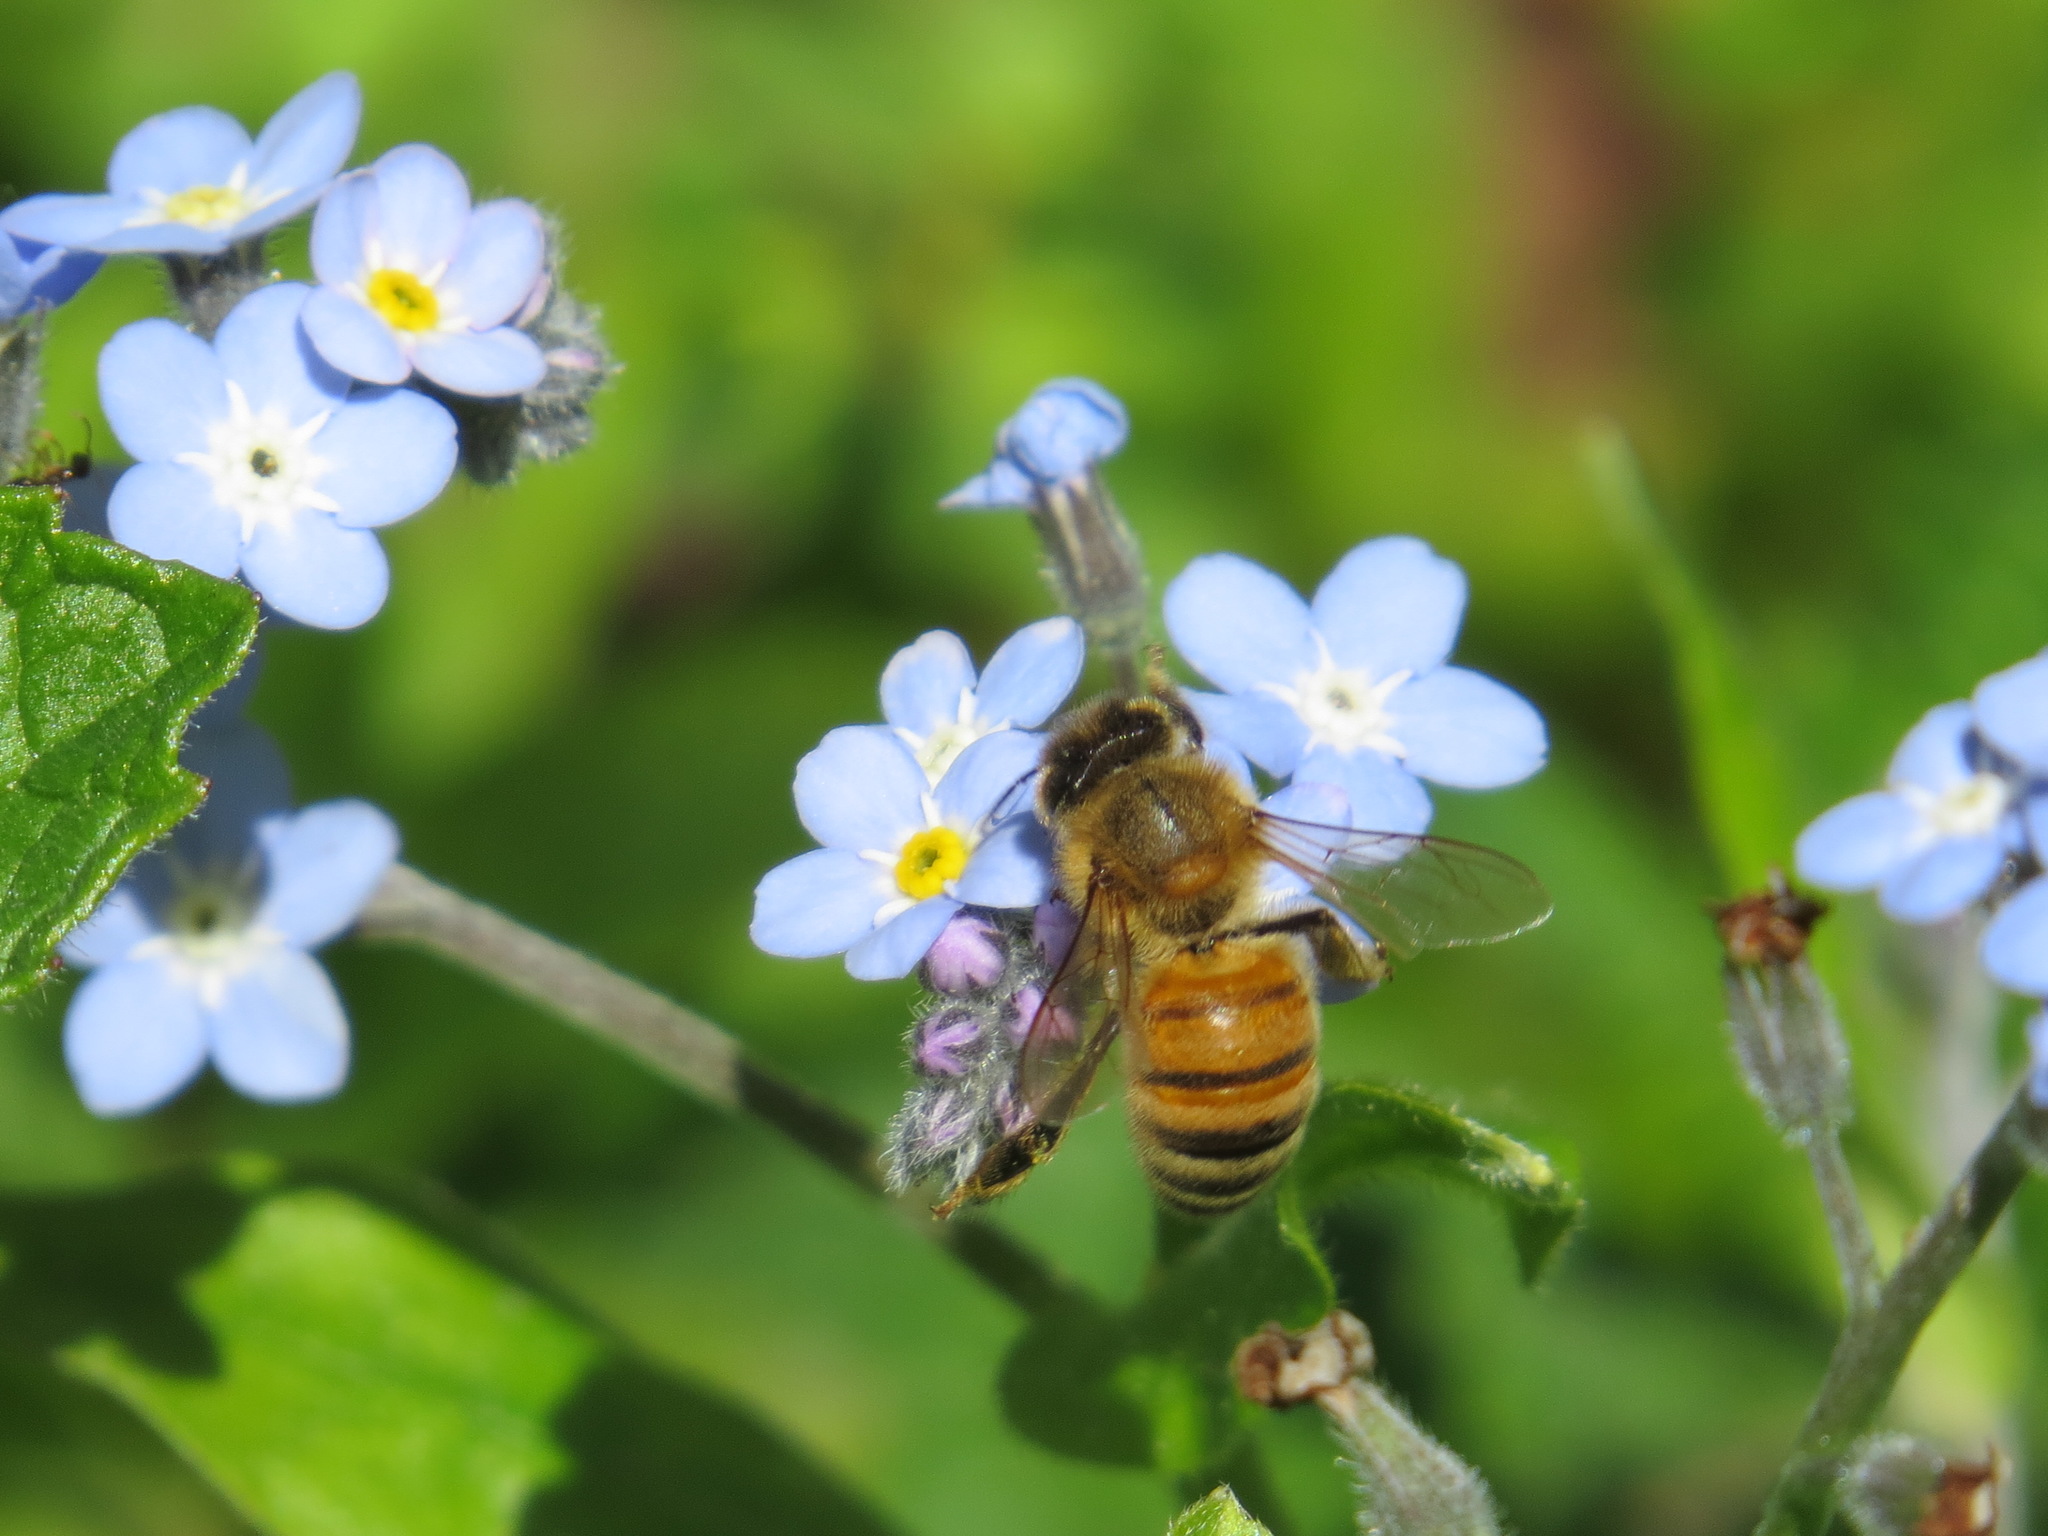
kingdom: Animalia
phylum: Arthropoda
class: Insecta
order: Hymenoptera
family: Apidae
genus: Apis
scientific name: Apis mellifera
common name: Honey bee
